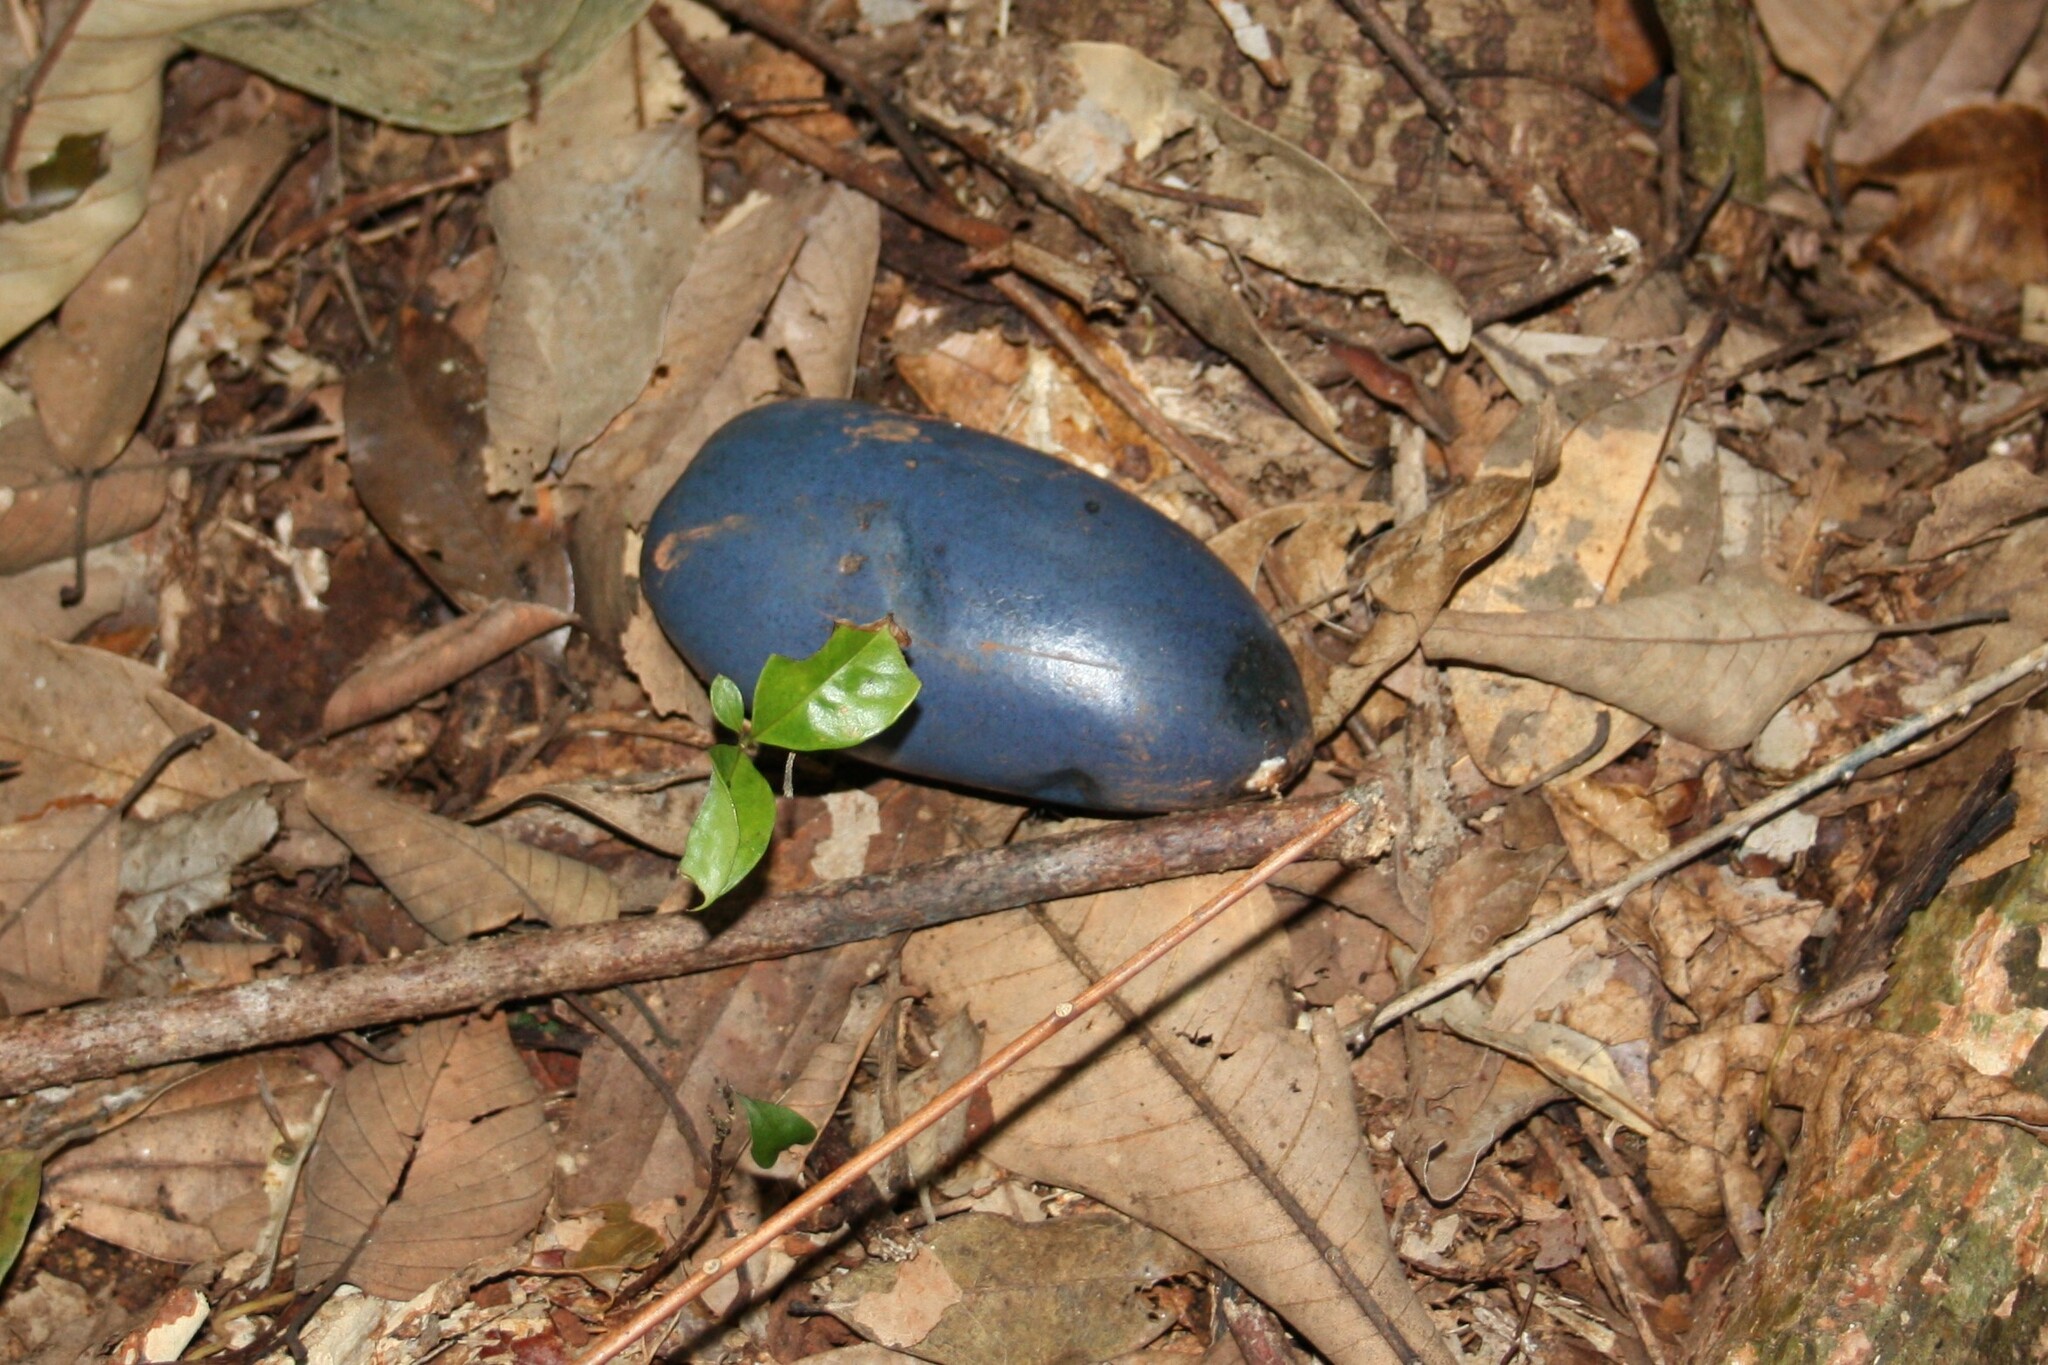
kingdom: Plantae
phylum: Tracheophyta
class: Magnoliopsida
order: Gentianales
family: Apocynaceae
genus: Cerbera
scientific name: Cerbera
